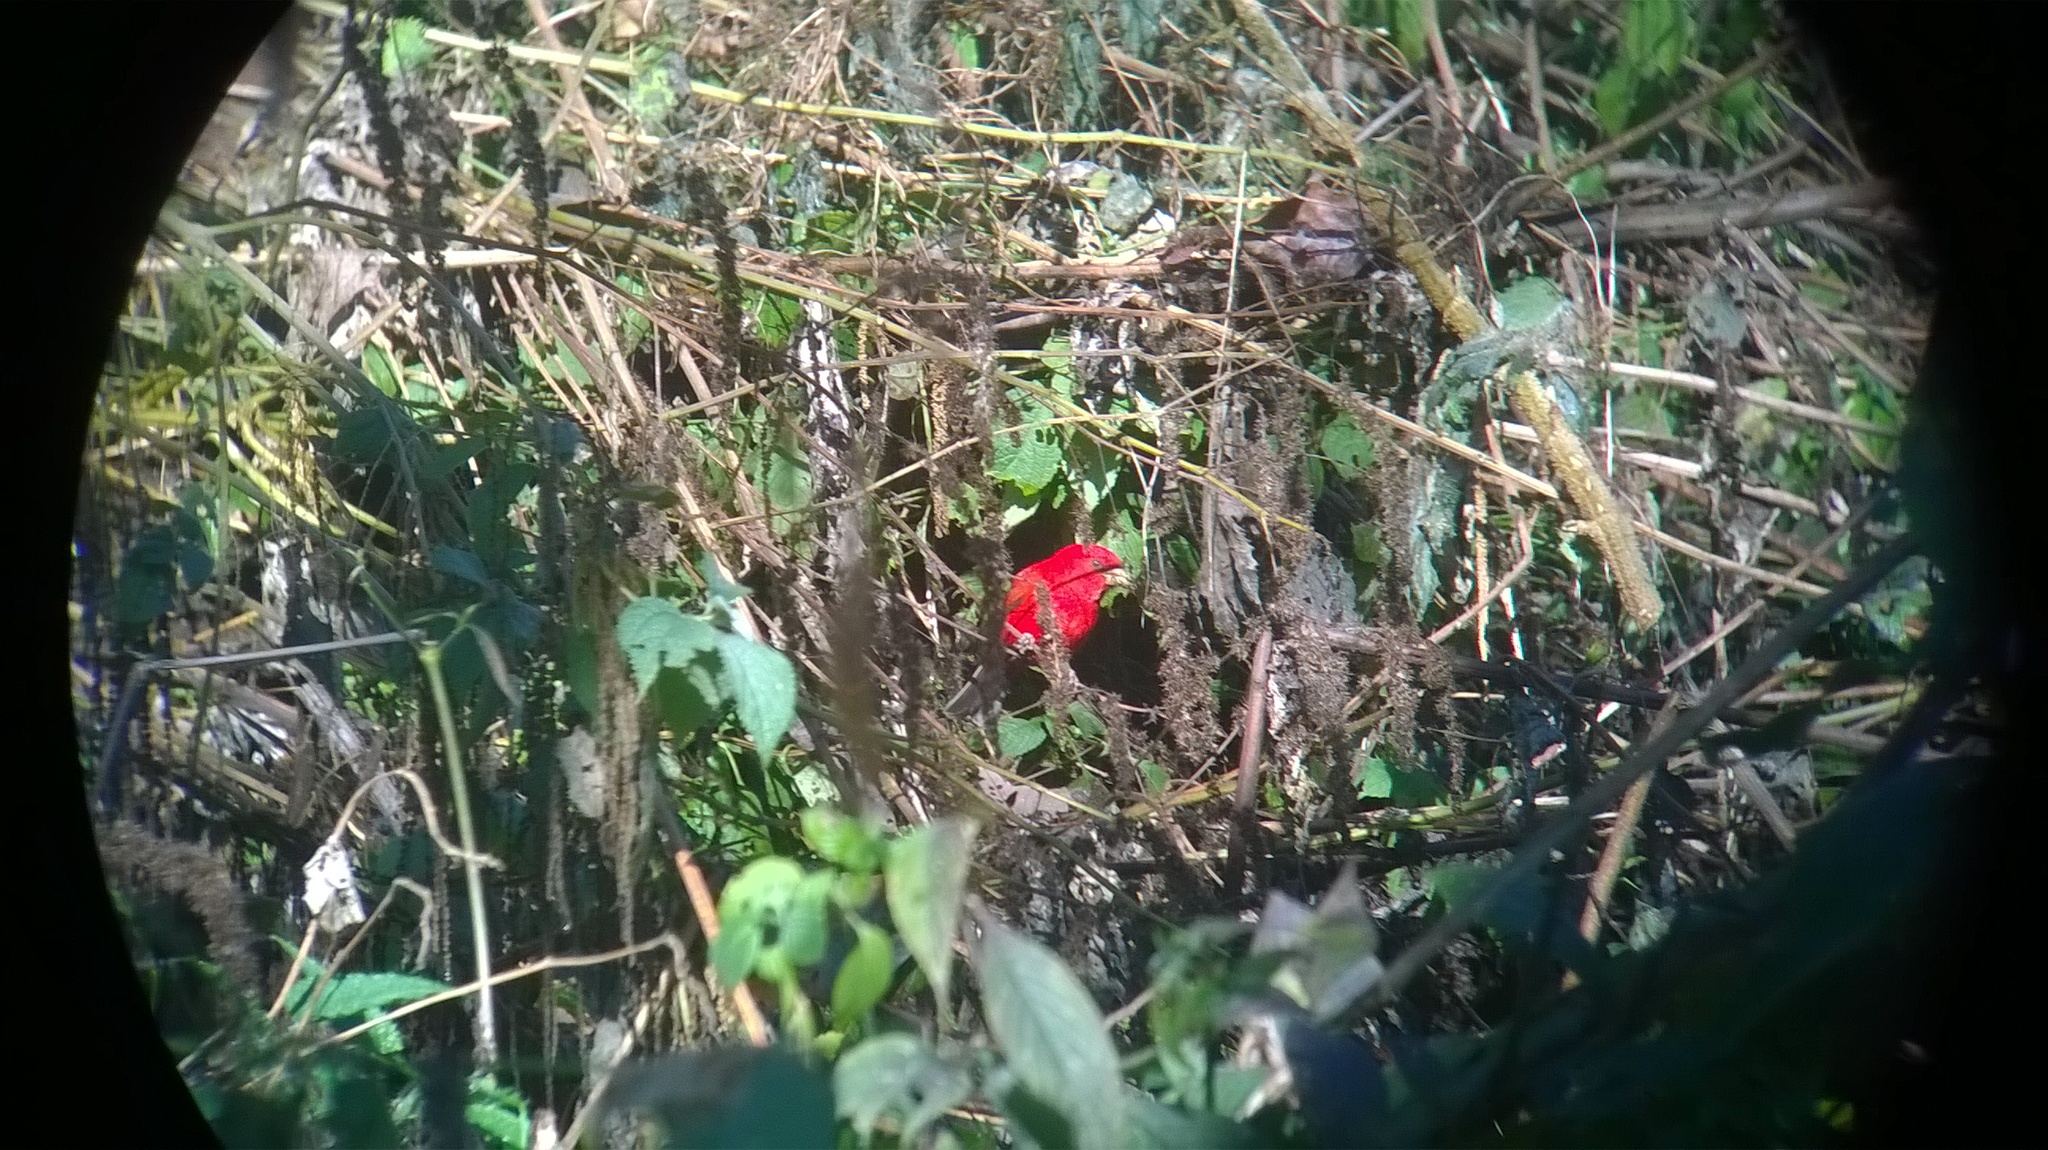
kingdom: Animalia
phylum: Chordata
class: Aves
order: Passeriformes
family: Fringillidae
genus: Carpodacus
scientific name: Carpodacus sipahi
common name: Scarlet finch
